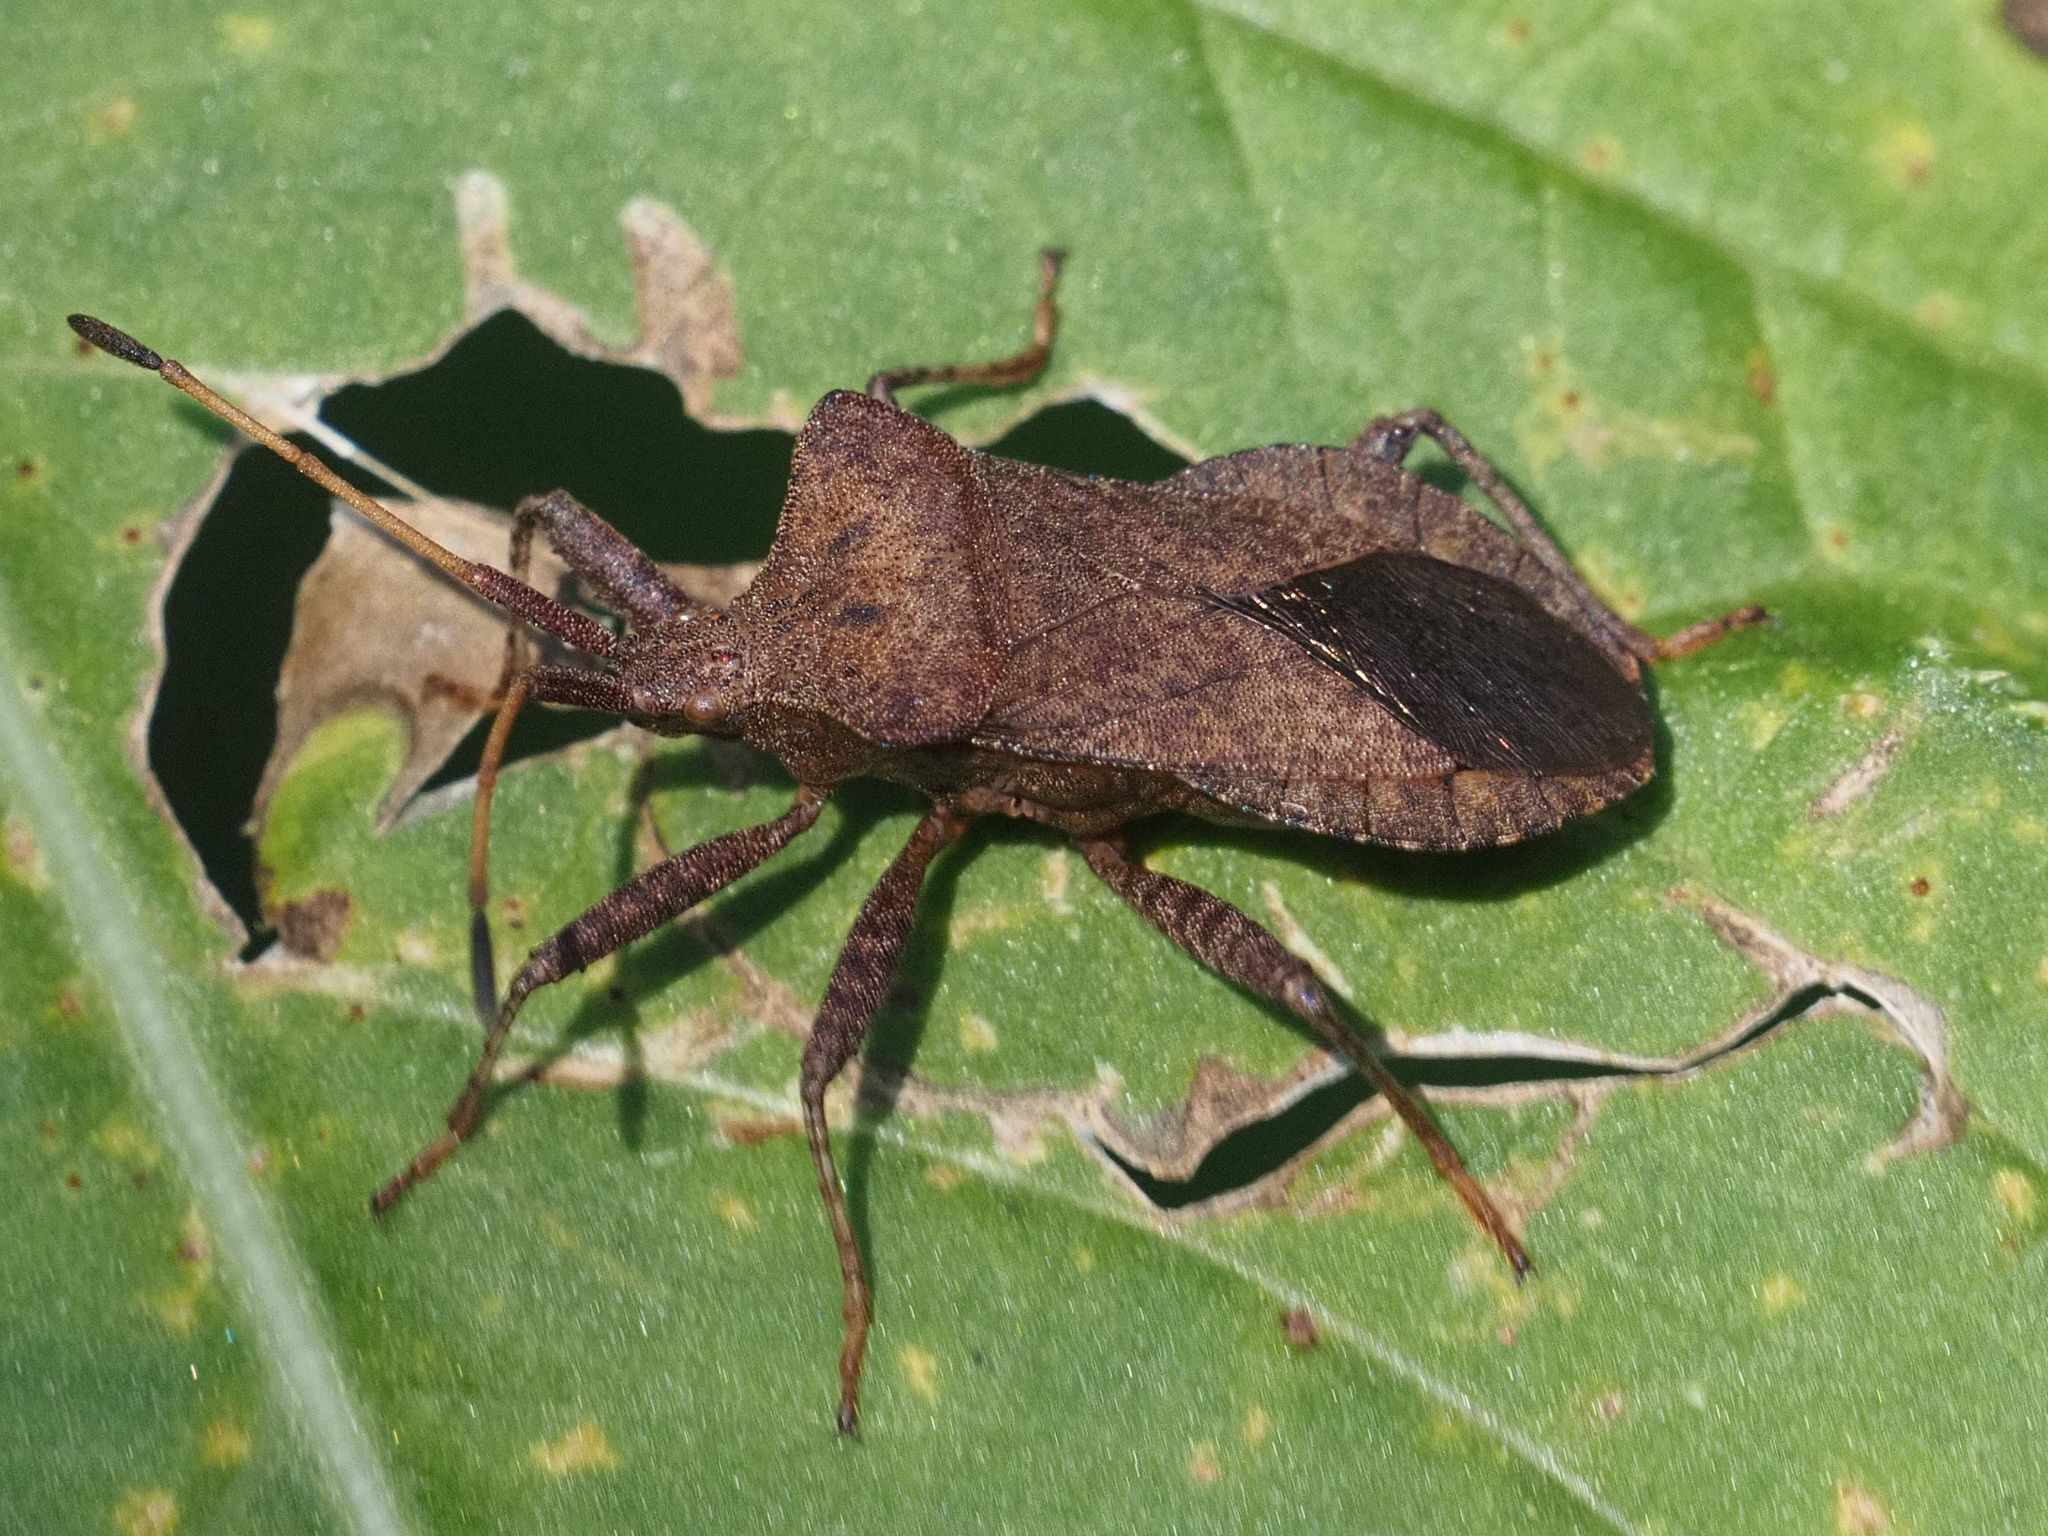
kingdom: Animalia
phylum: Arthropoda
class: Insecta
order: Hemiptera
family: Coreidae
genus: Coreus
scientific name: Coreus marginatus
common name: Dock bug
